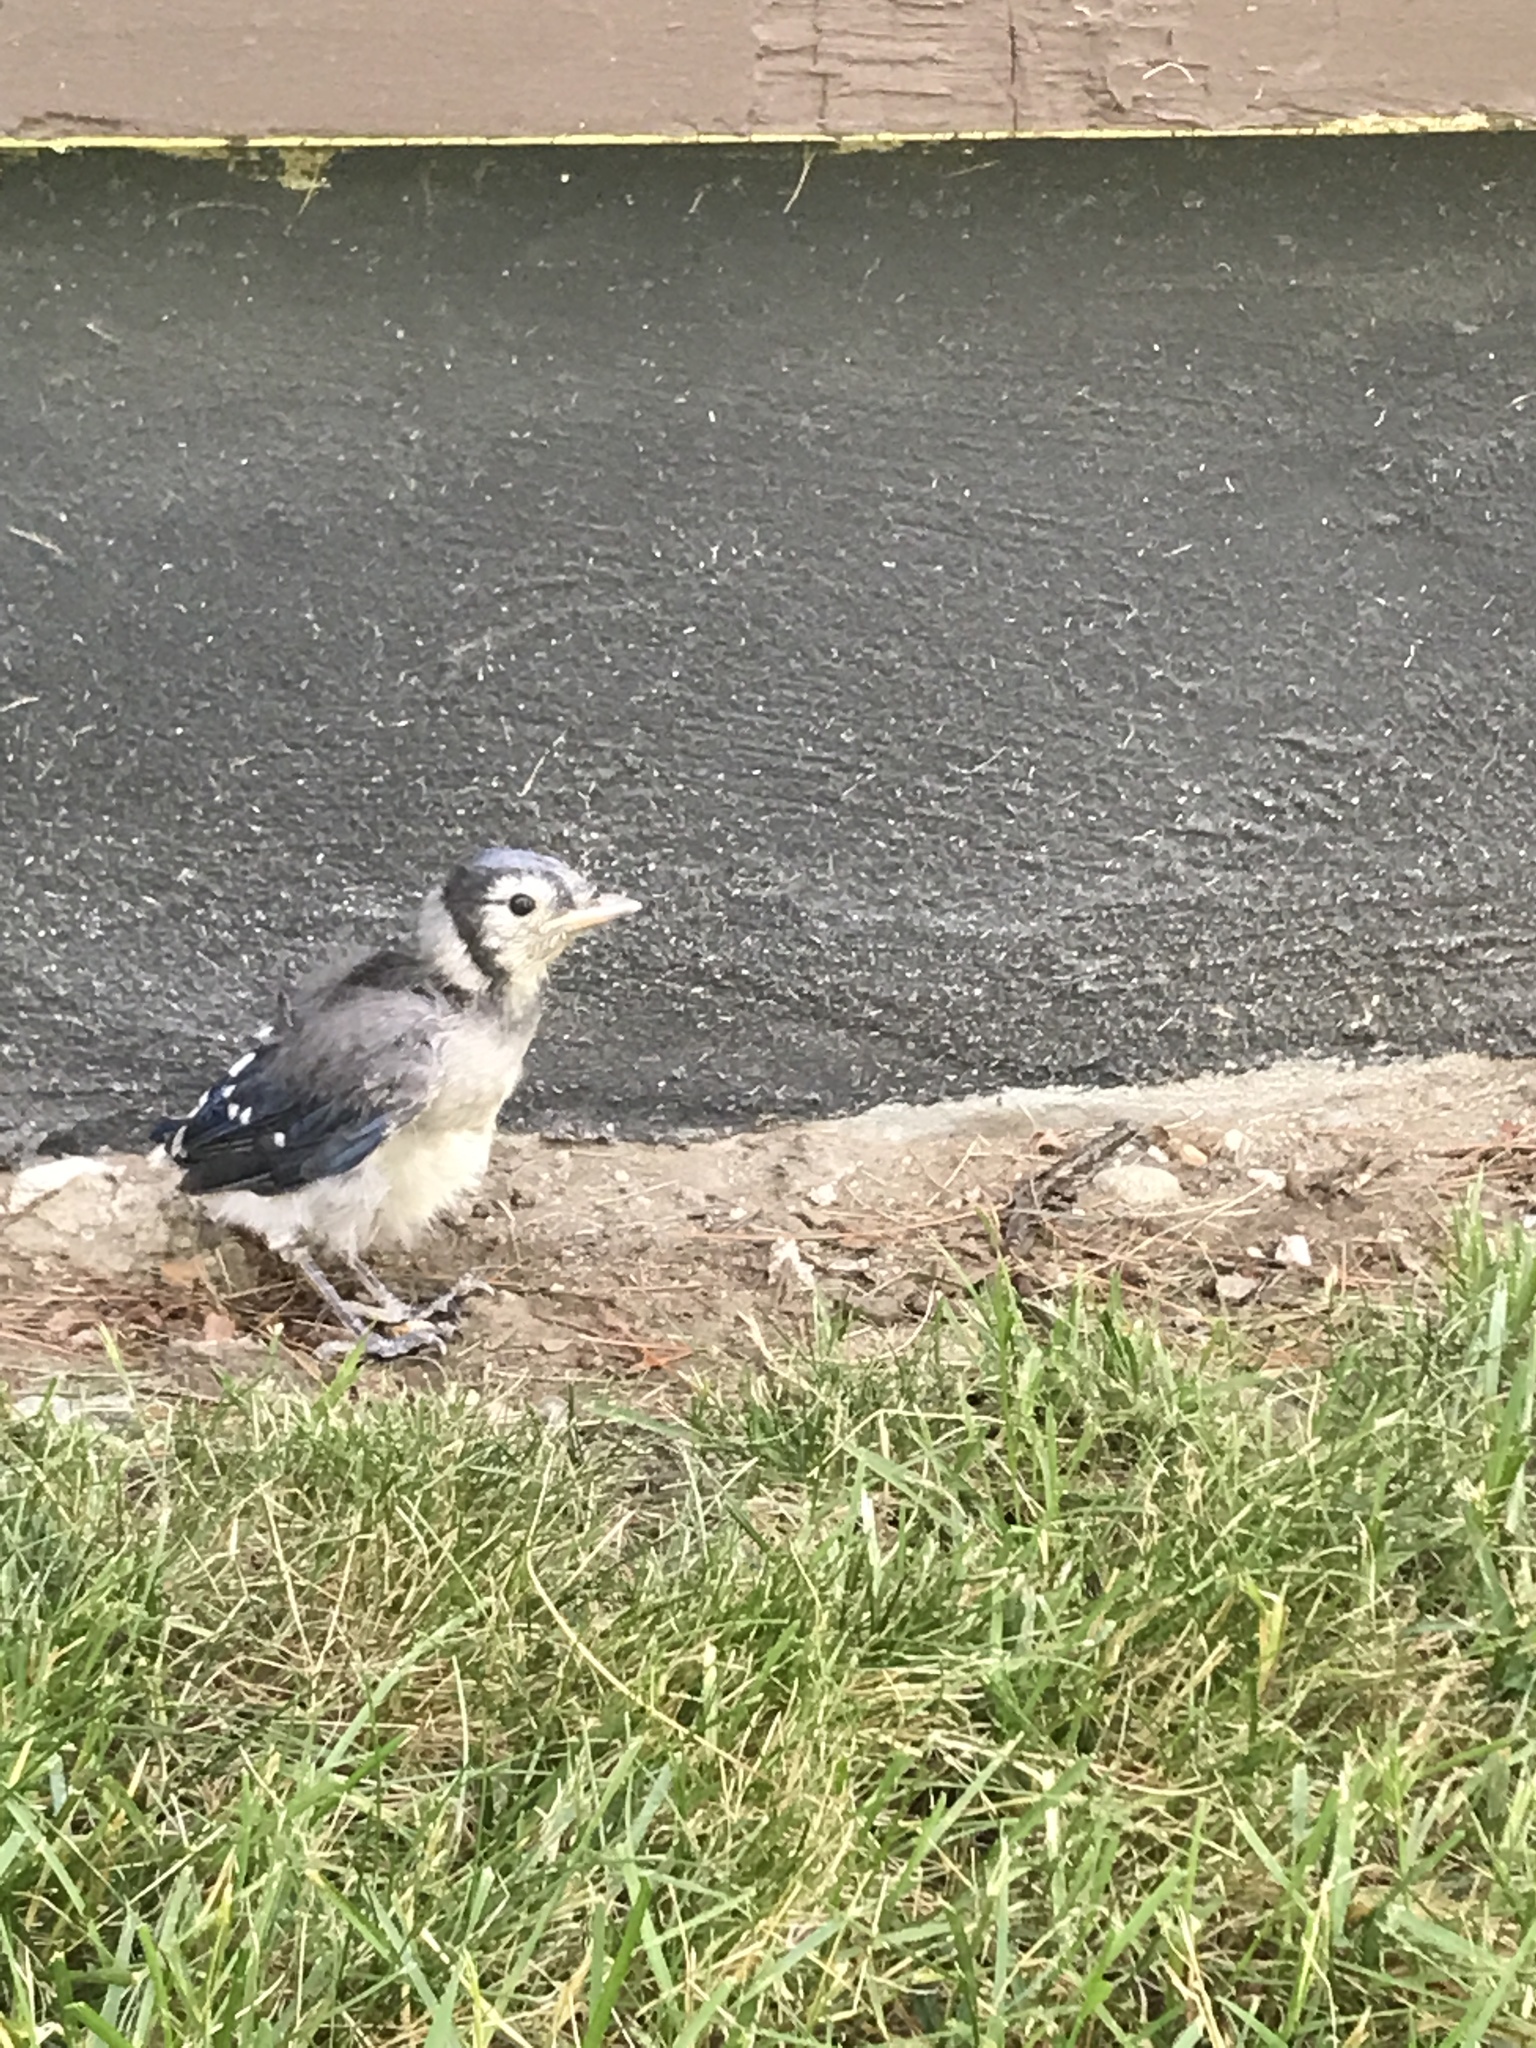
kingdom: Animalia
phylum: Chordata
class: Aves
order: Passeriformes
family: Corvidae
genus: Cyanocitta
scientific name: Cyanocitta cristata
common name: Blue jay
